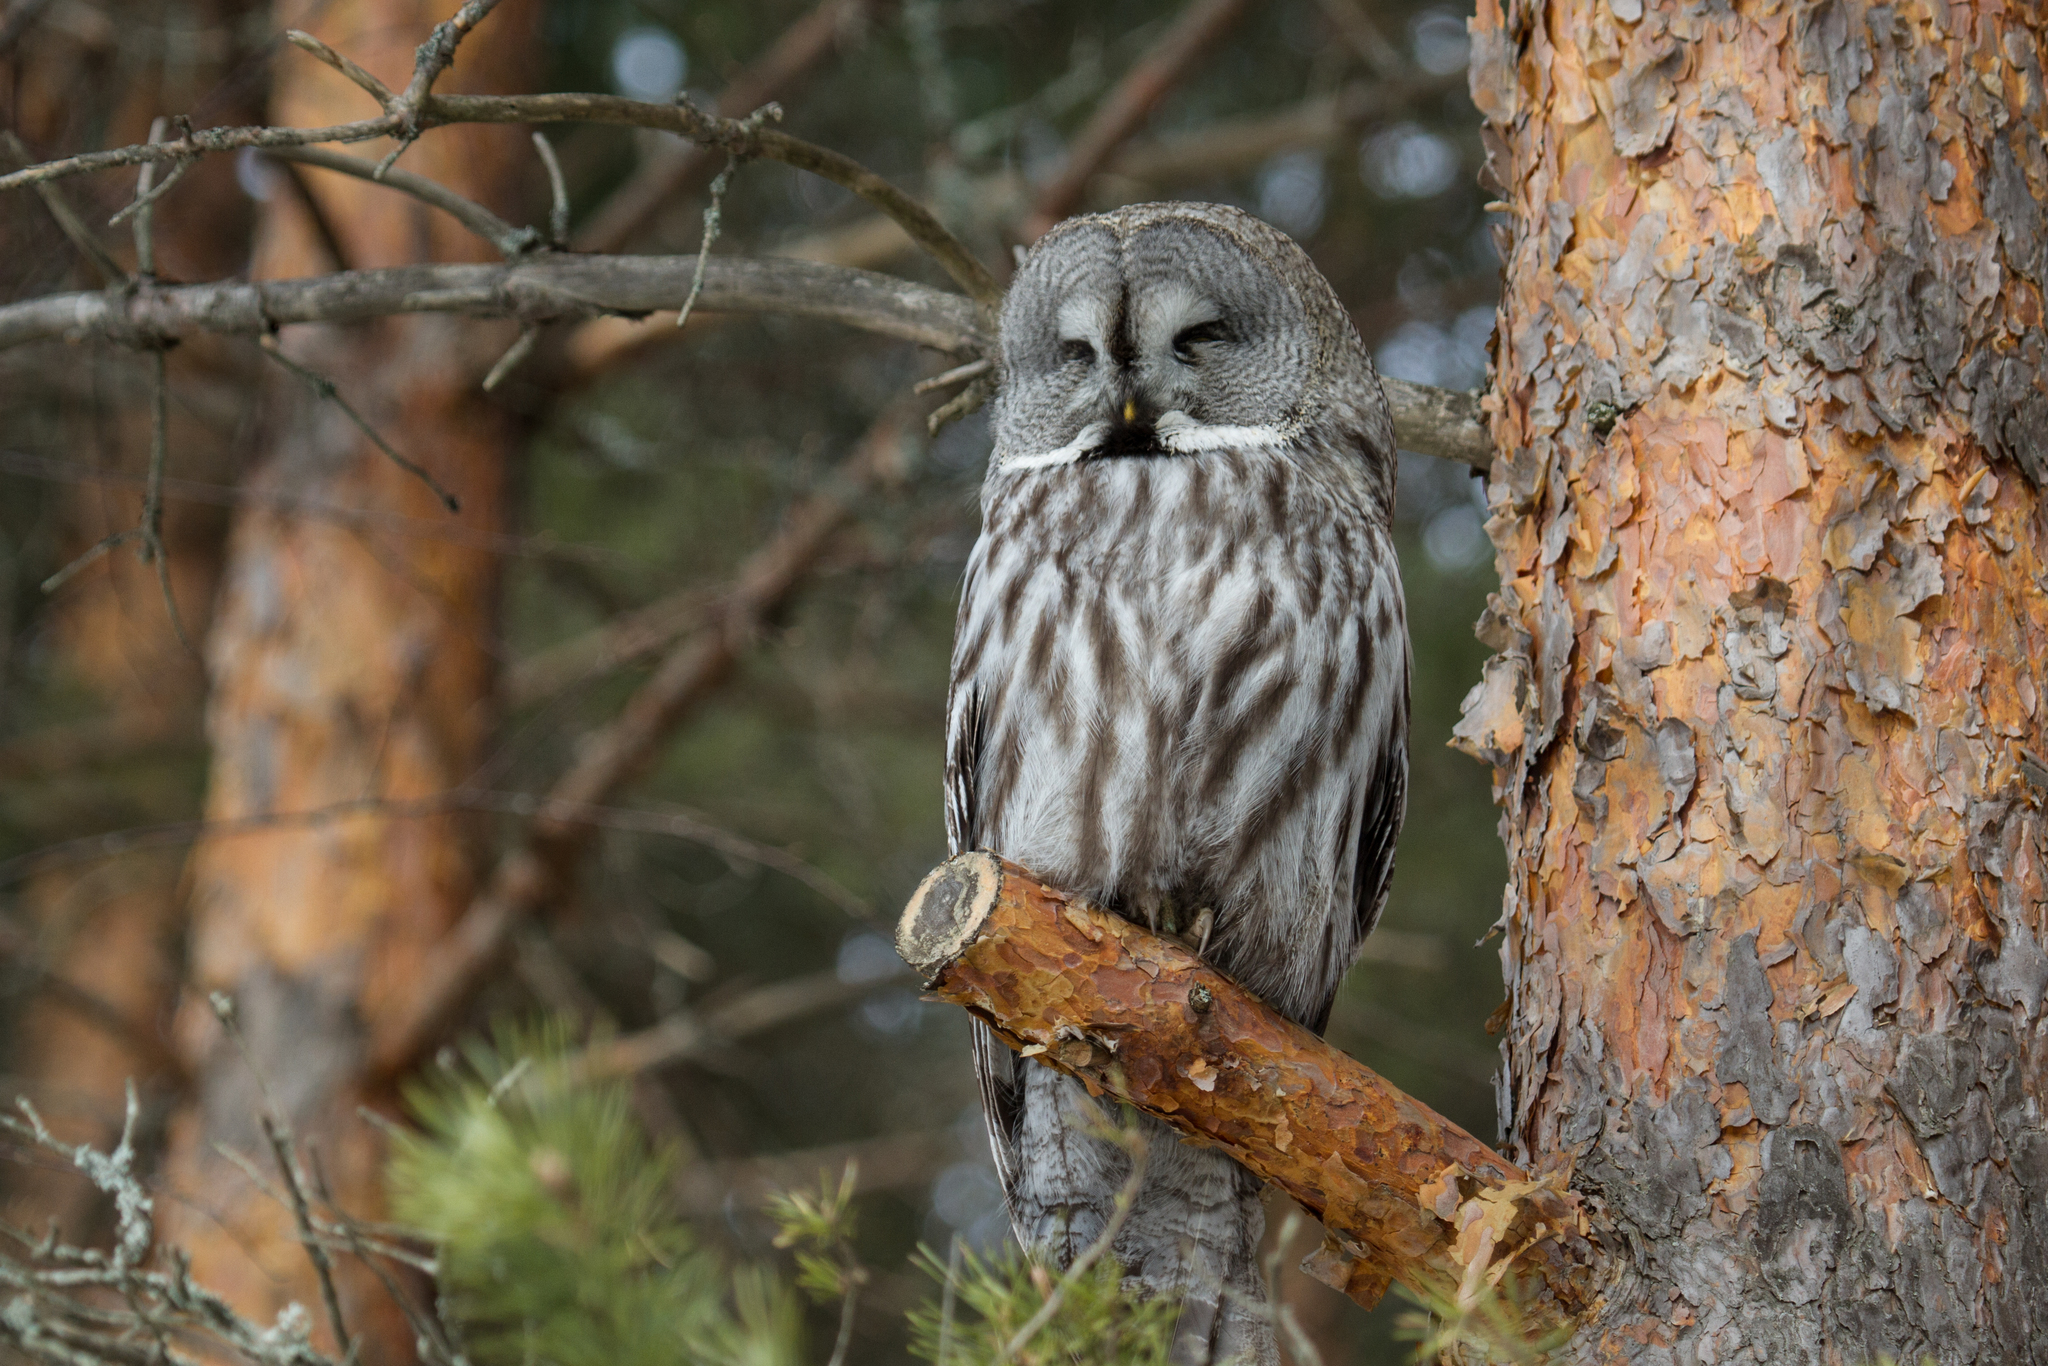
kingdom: Animalia
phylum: Chordata
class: Aves
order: Strigiformes
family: Strigidae
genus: Strix
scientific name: Strix nebulosa
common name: Great grey owl
